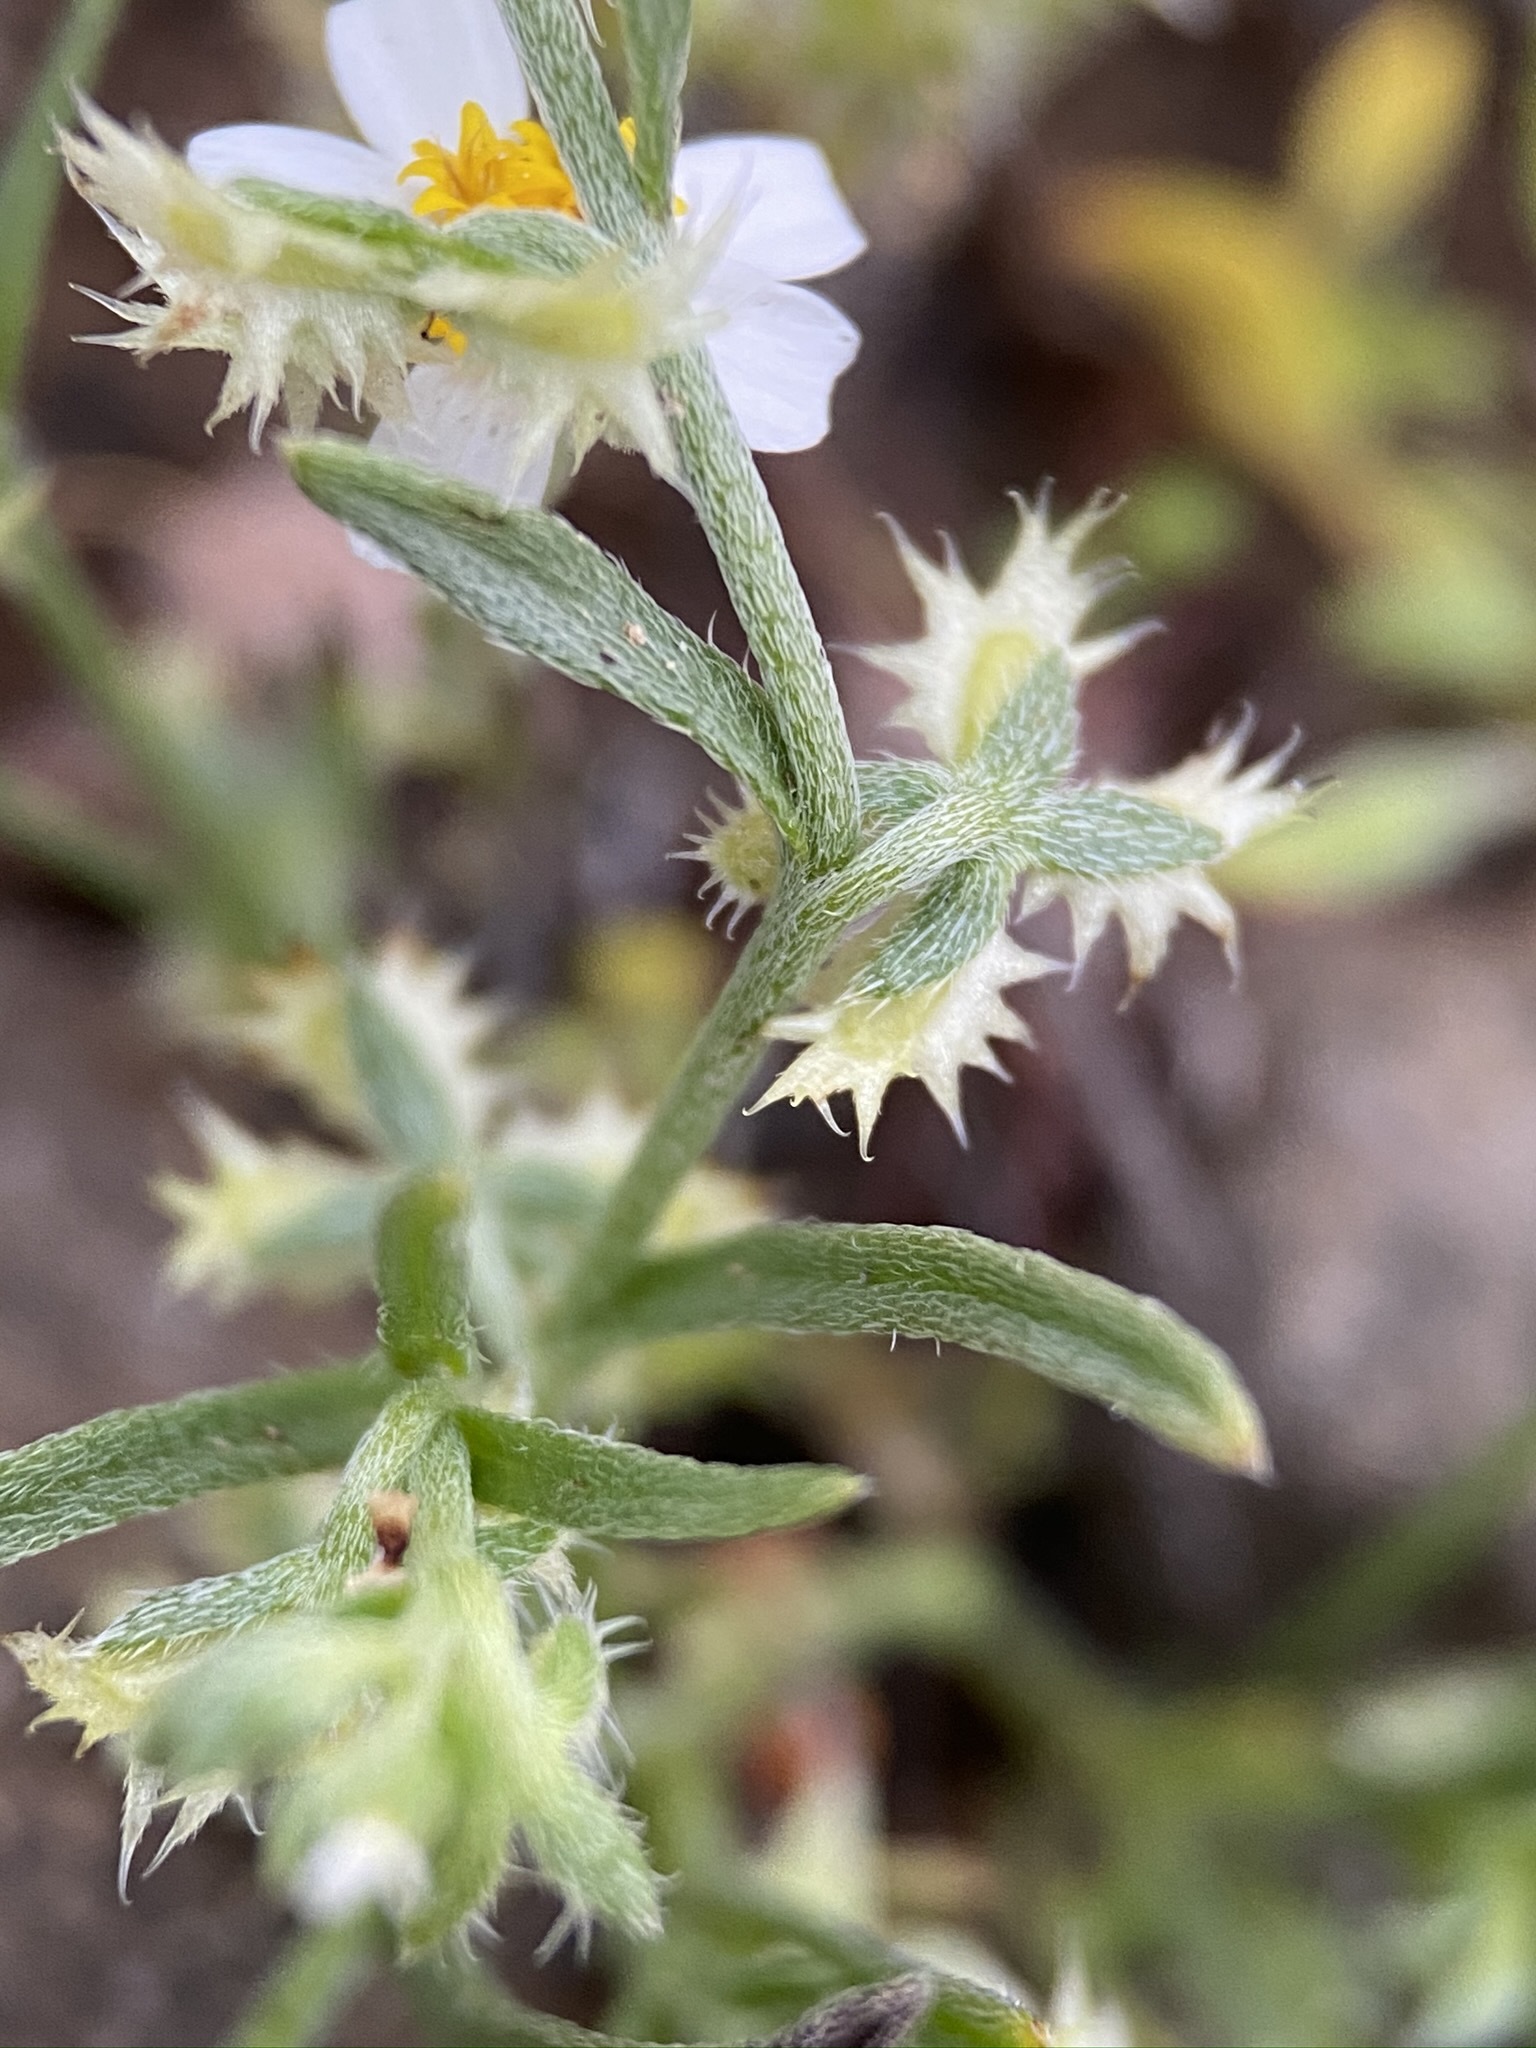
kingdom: Plantae
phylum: Tracheophyta
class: Magnoliopsida
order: Boraginales
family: Boraginaceae
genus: Pectocarya
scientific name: Pectocarya platycarpa
